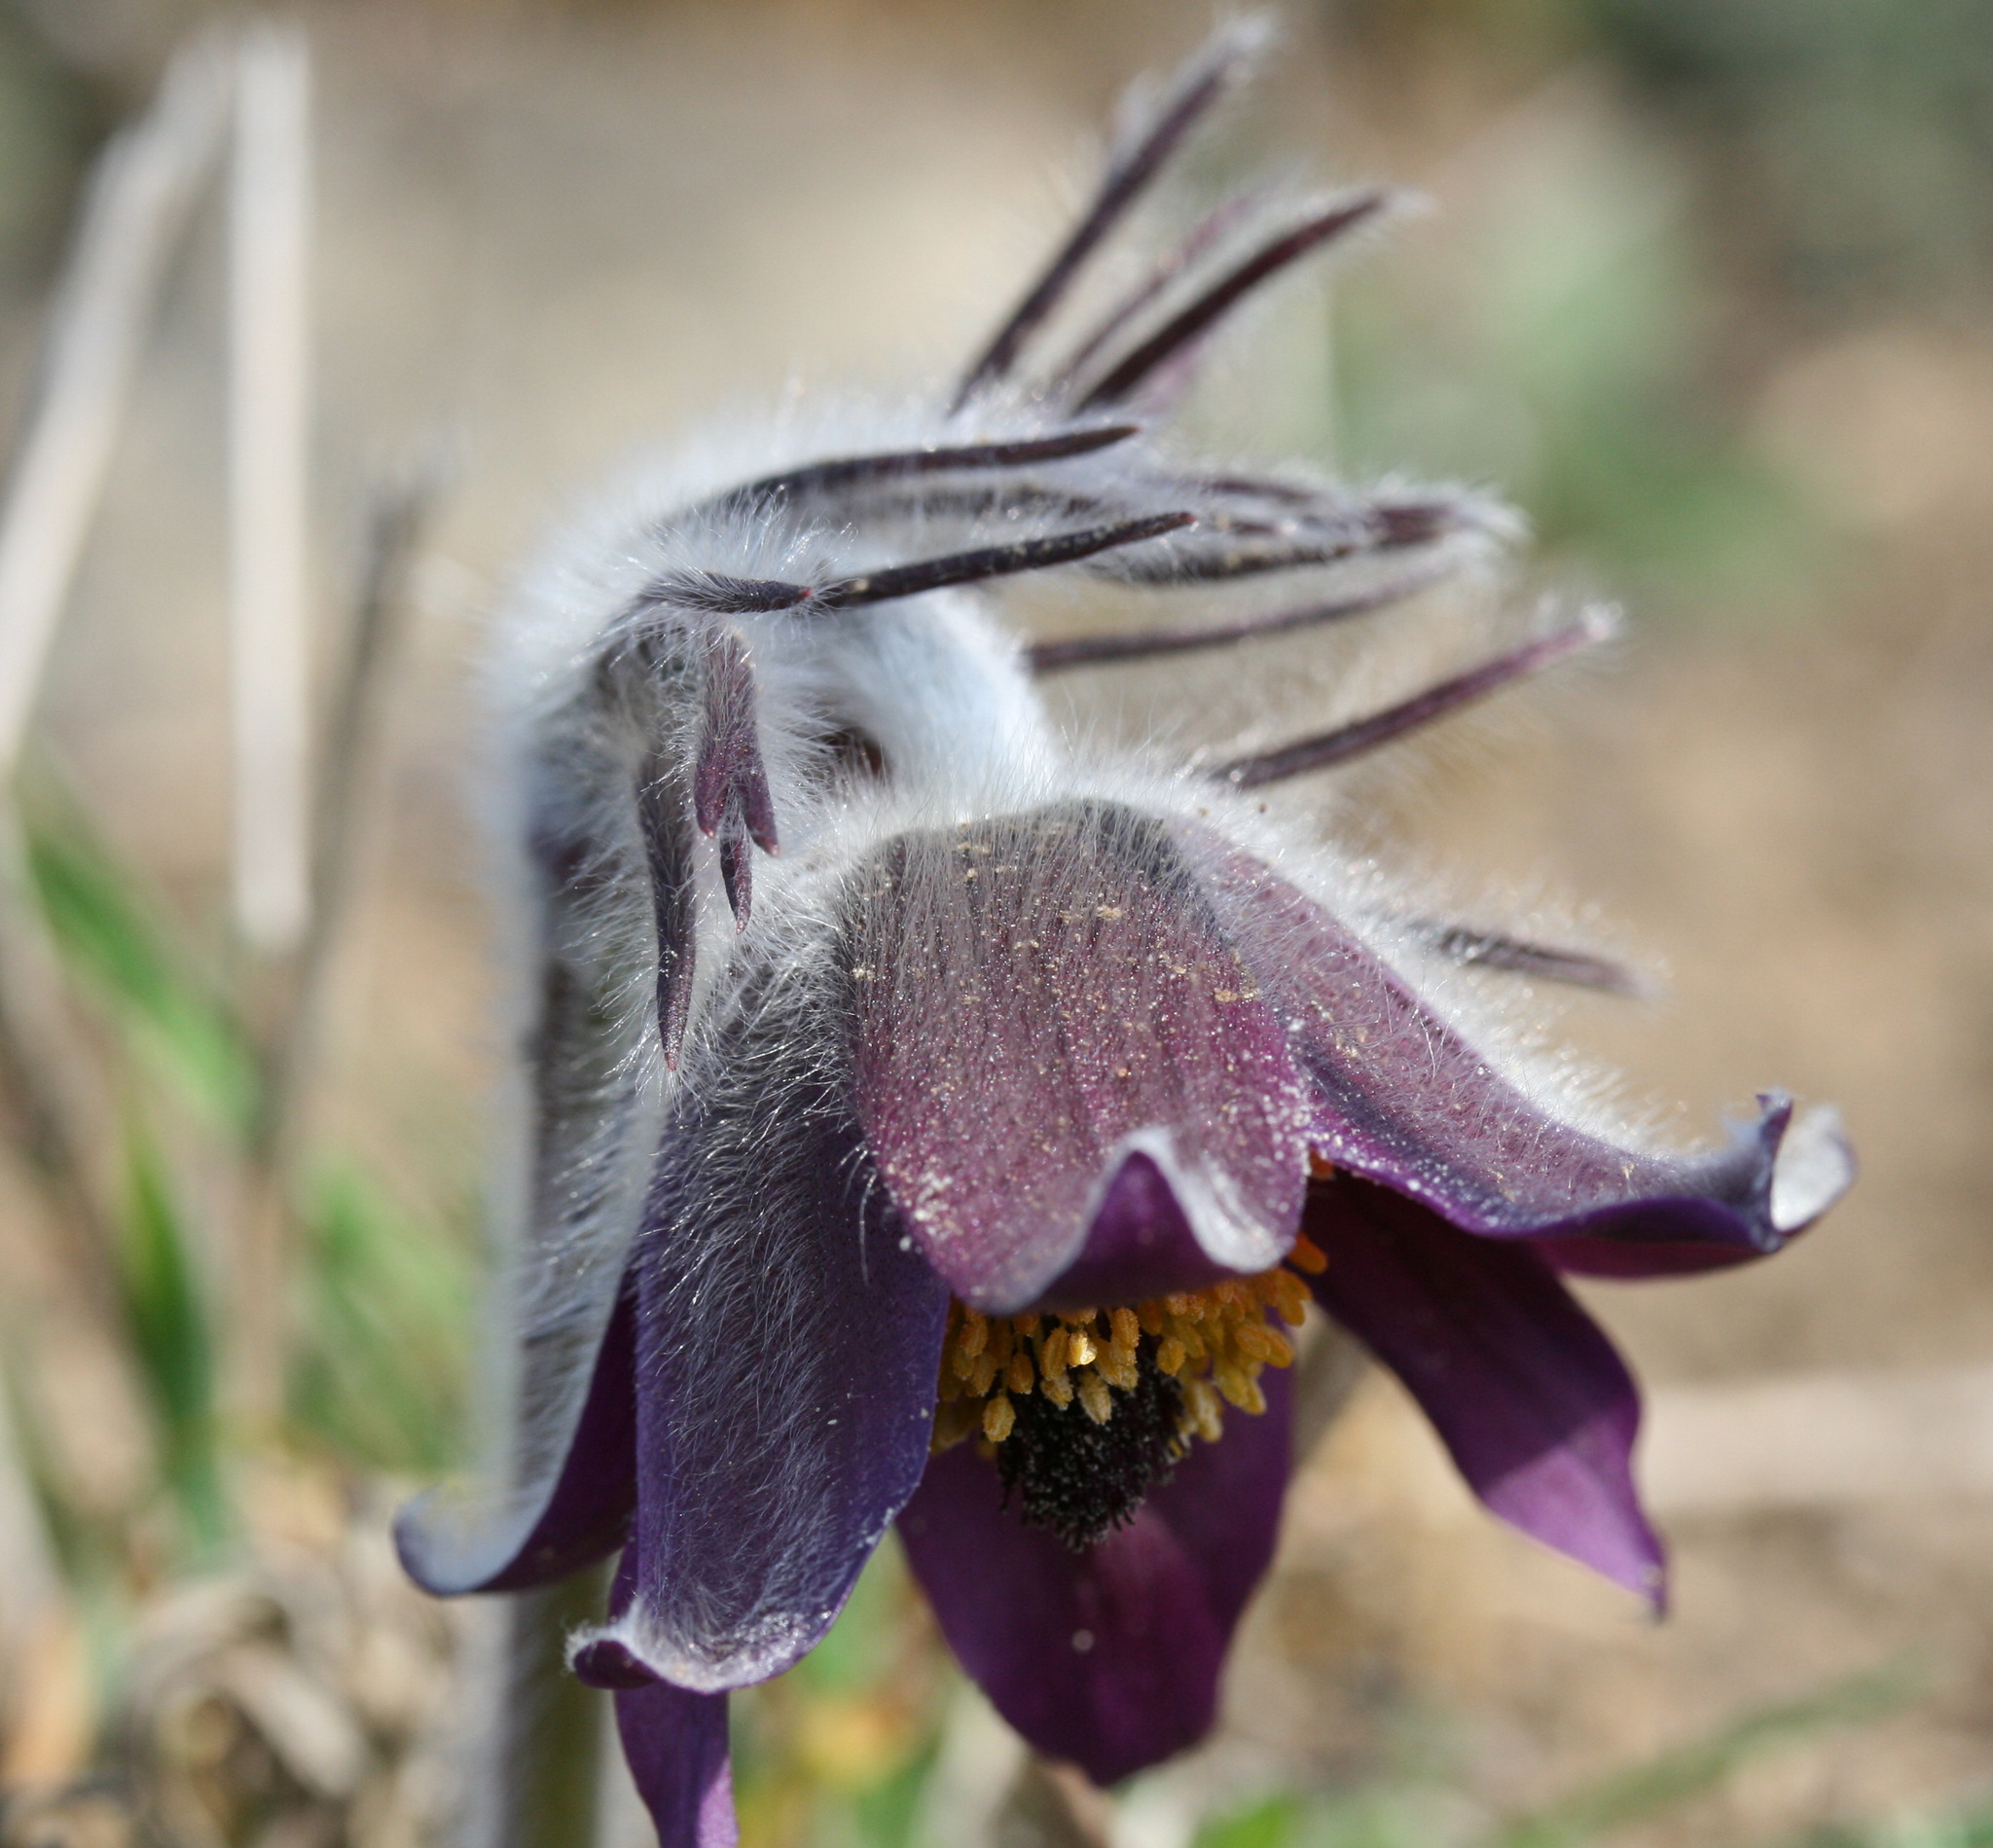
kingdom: Plantae
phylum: Tracheophyta
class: Magnoliopsida
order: Ranunculales
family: Ranunculaceae
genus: Pulsatilla
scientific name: Pulsatilla pratensis
